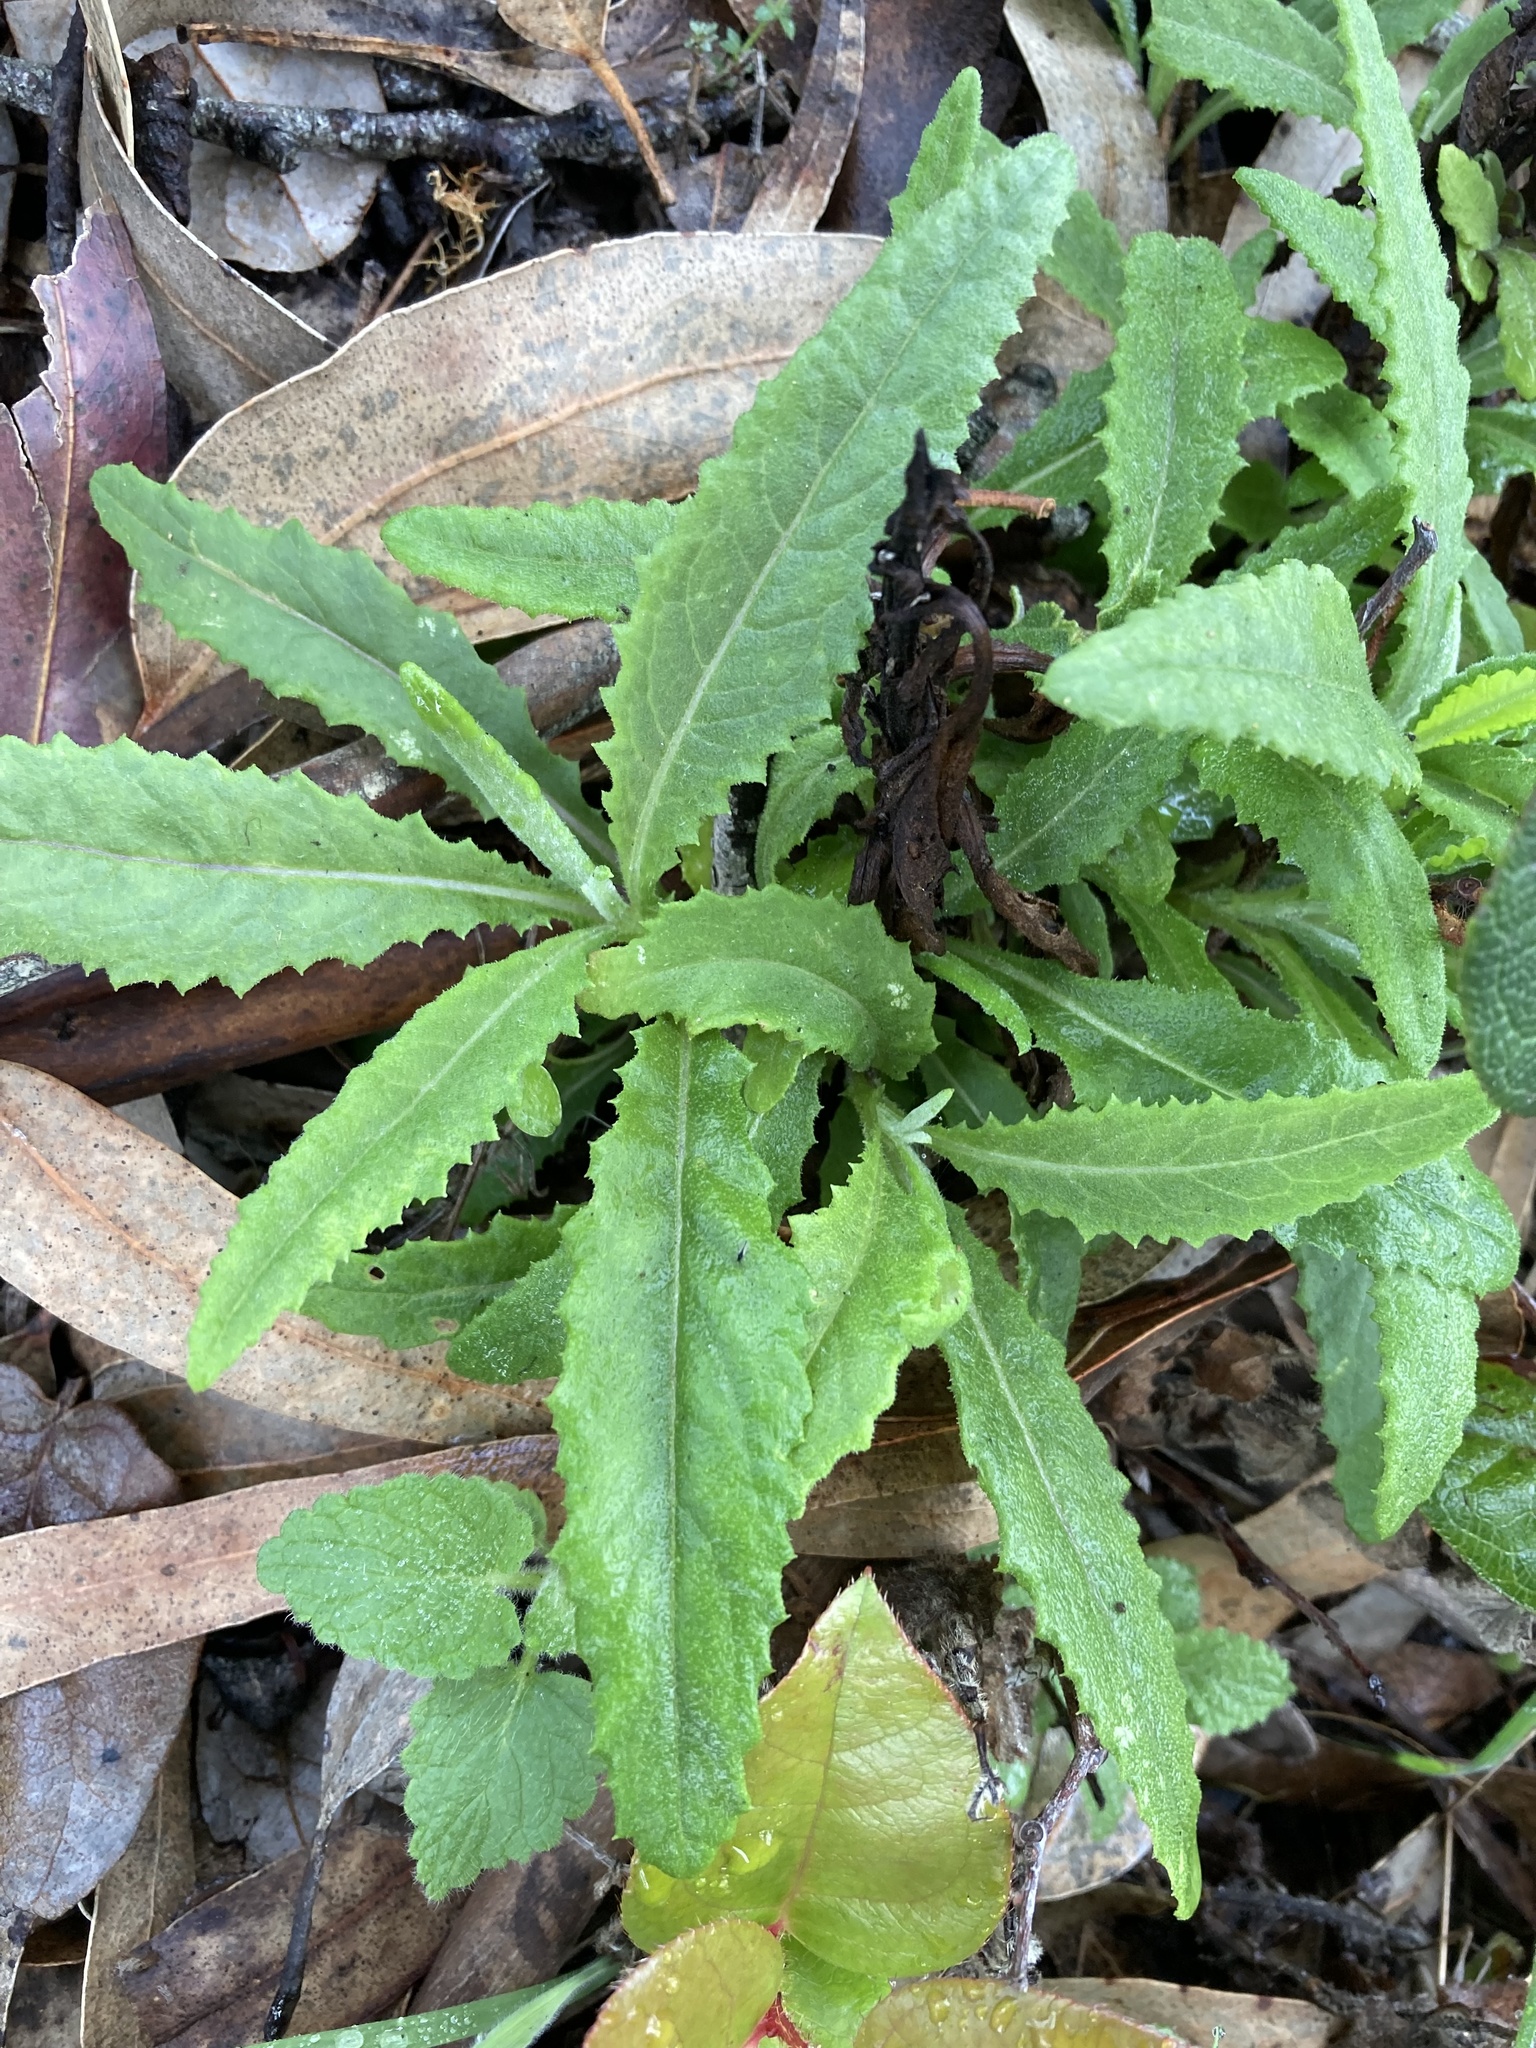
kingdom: Plantae
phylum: Tracheophyta
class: Magnoliopsida
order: Asterales
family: Asteraceae
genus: Senecio
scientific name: Senecio minimus
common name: Toothed fireweed
